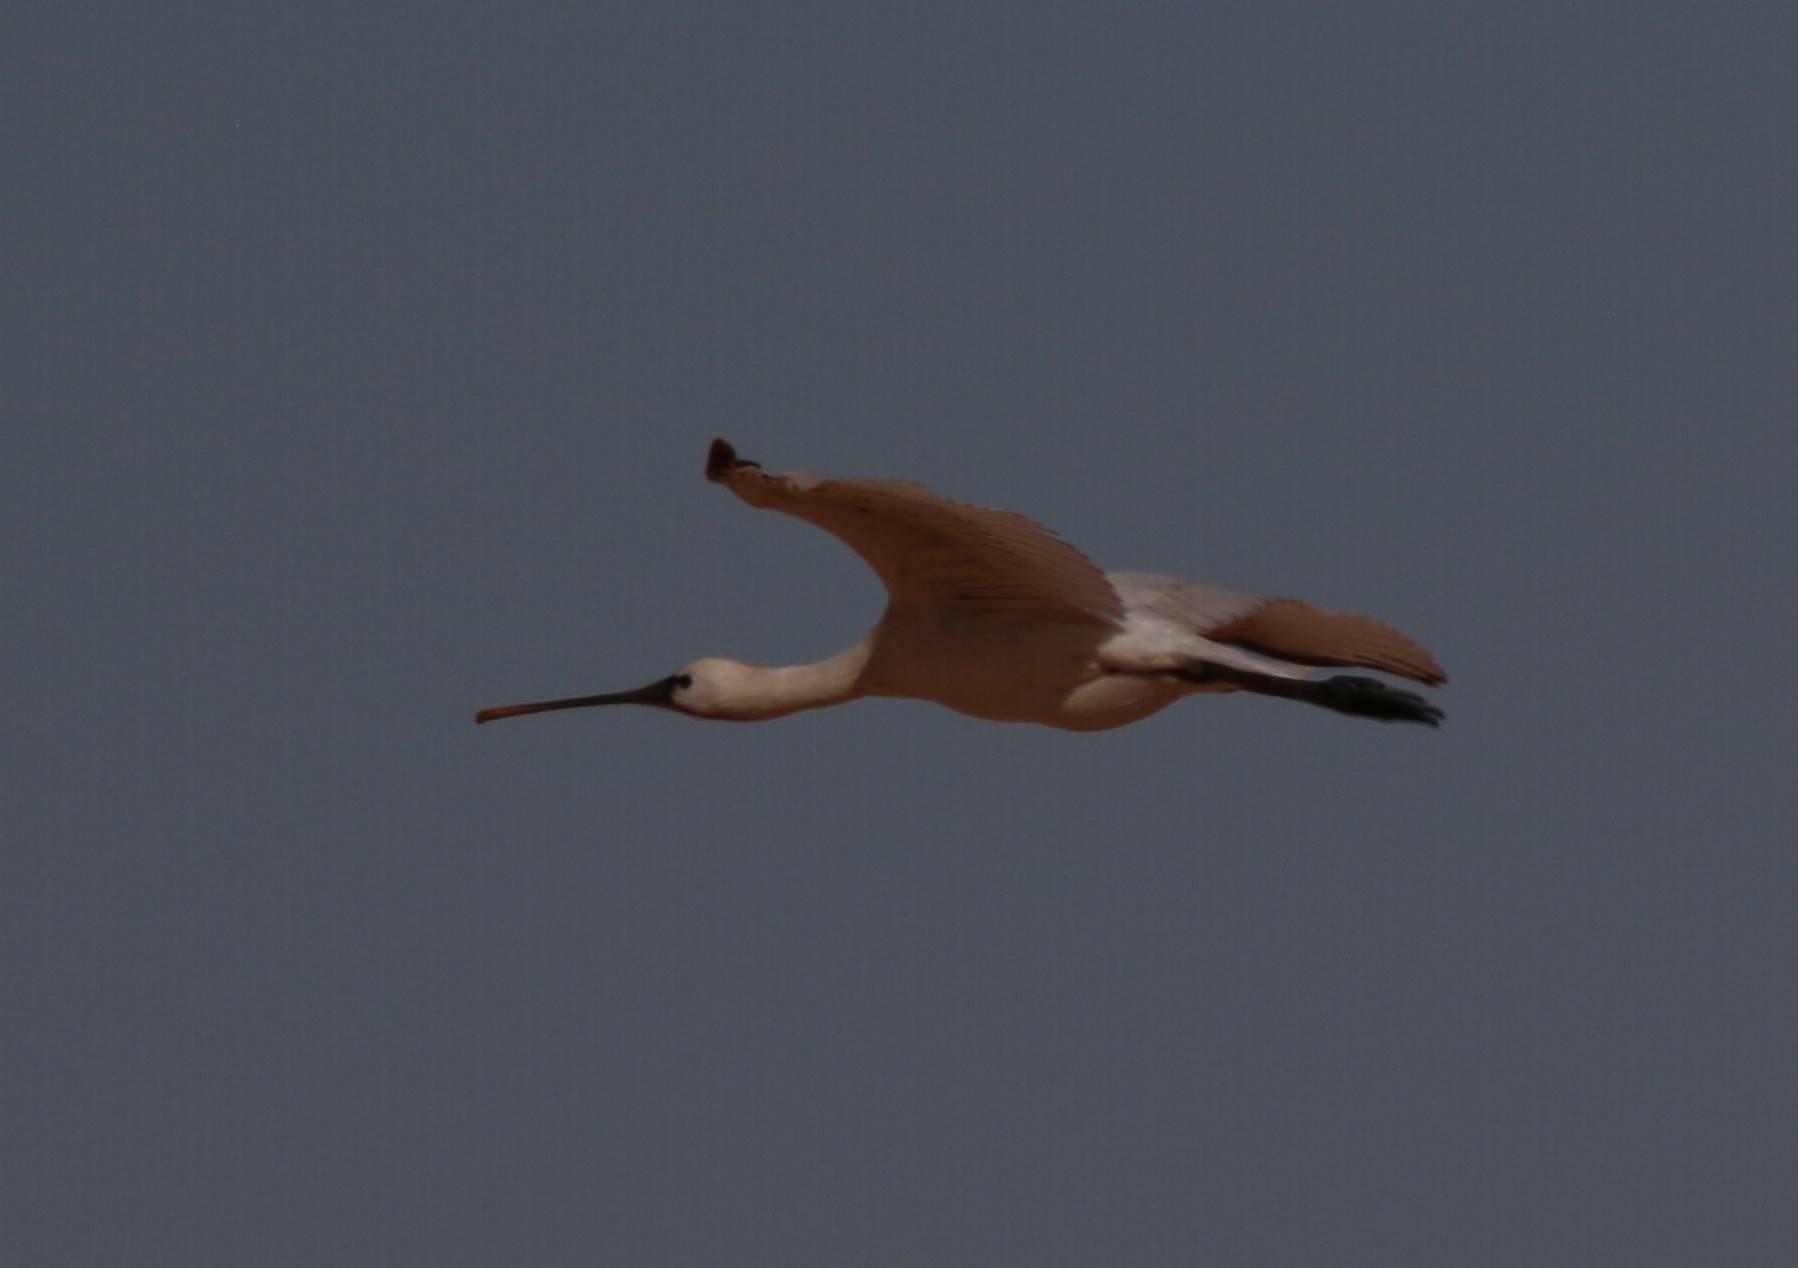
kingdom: Animalia
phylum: Chordata
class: Aves
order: Pelecaniformes
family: Threskiornithidae
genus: Platalea
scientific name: Platalea leucorodia
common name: Eurasian spoonbill
